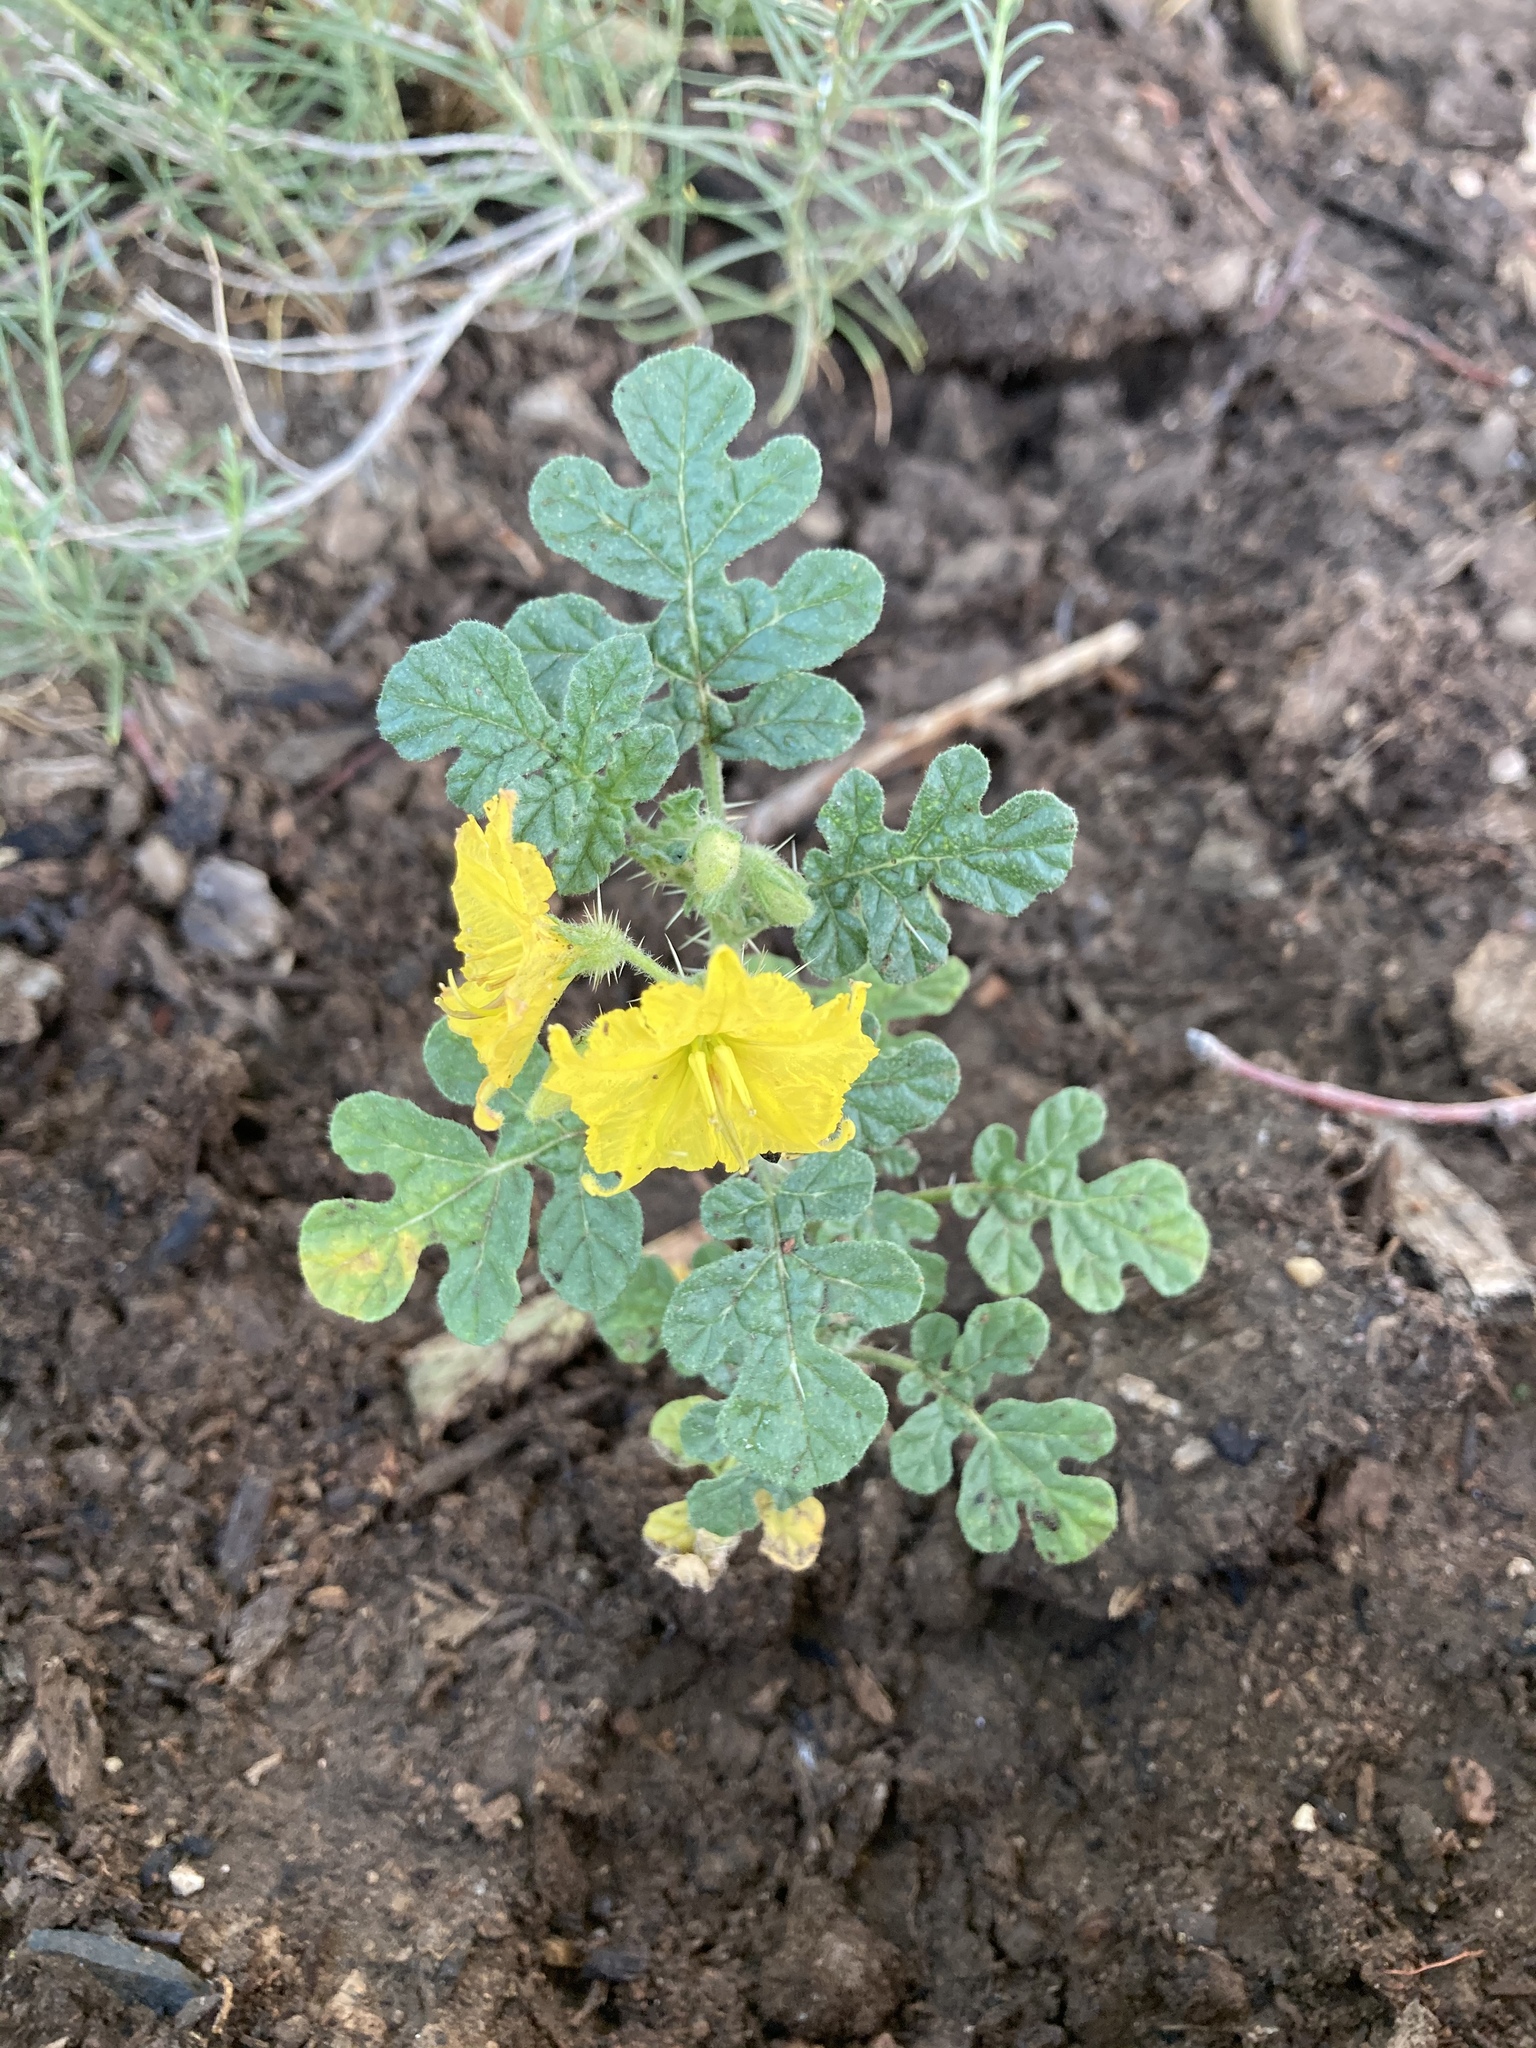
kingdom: Plantae
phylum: Tracheophyta
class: Magnoliopsida
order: Solanales
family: Solanaceae
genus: Solanum
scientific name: Solanum angustifolium
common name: Buffalobur nightshade
